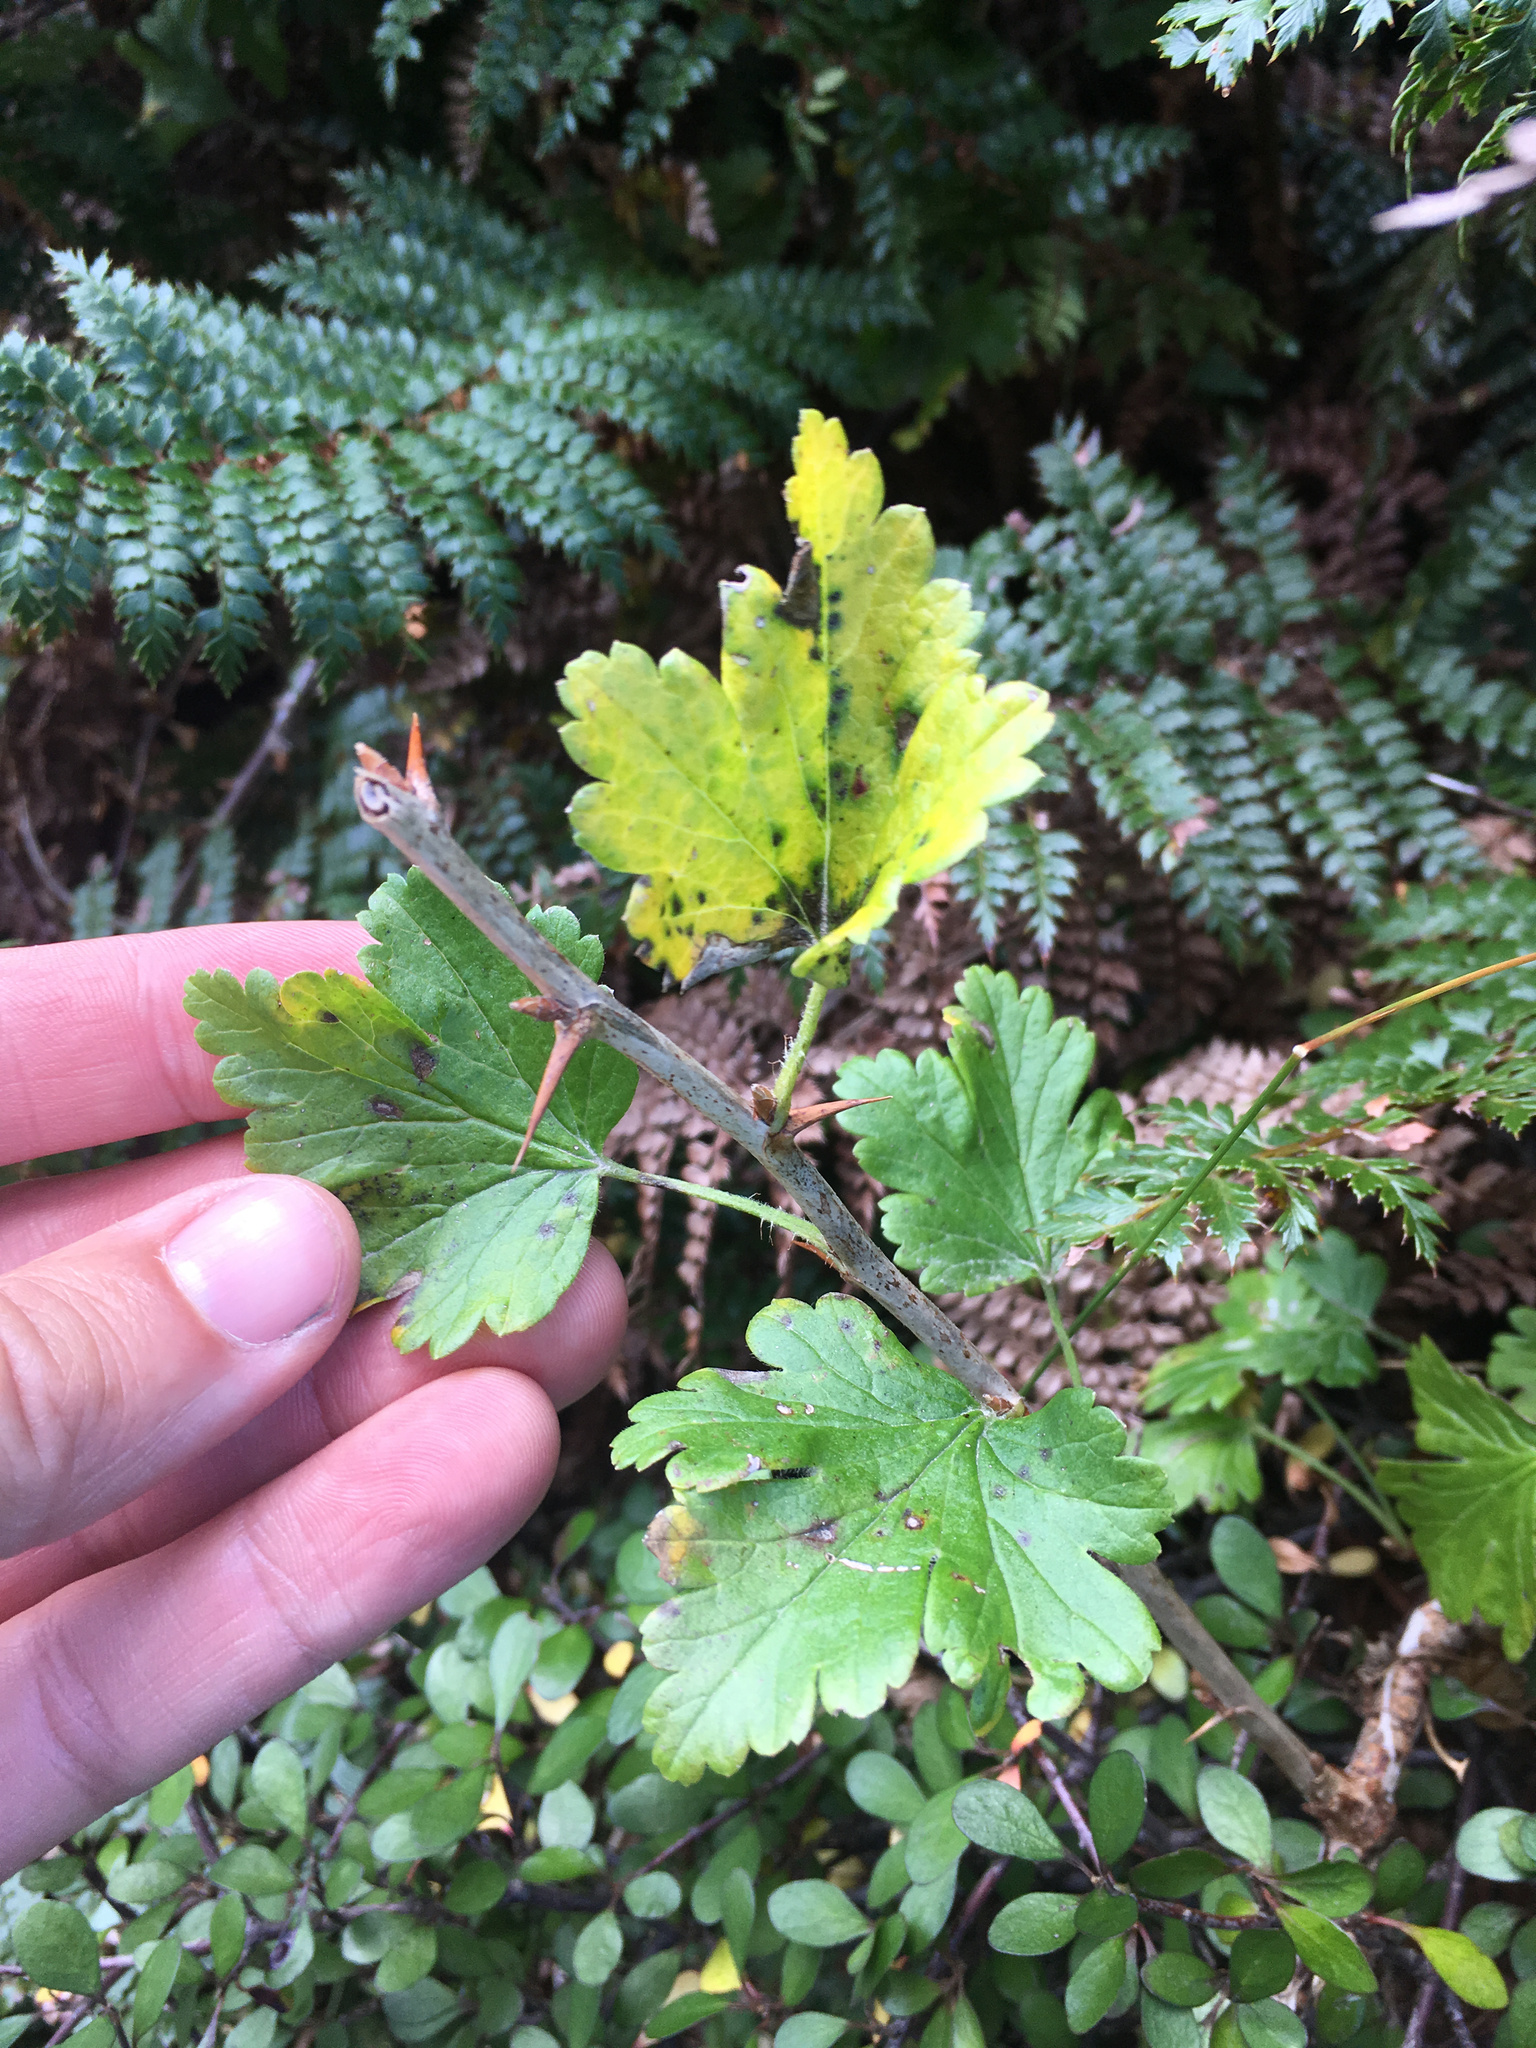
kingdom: Plantae
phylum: Tracheophyta
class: Magnoliopsida
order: Saxifragales
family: Grossulariaceae
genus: Ribes
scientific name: Ribes uva-crispa
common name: Gooseberry
